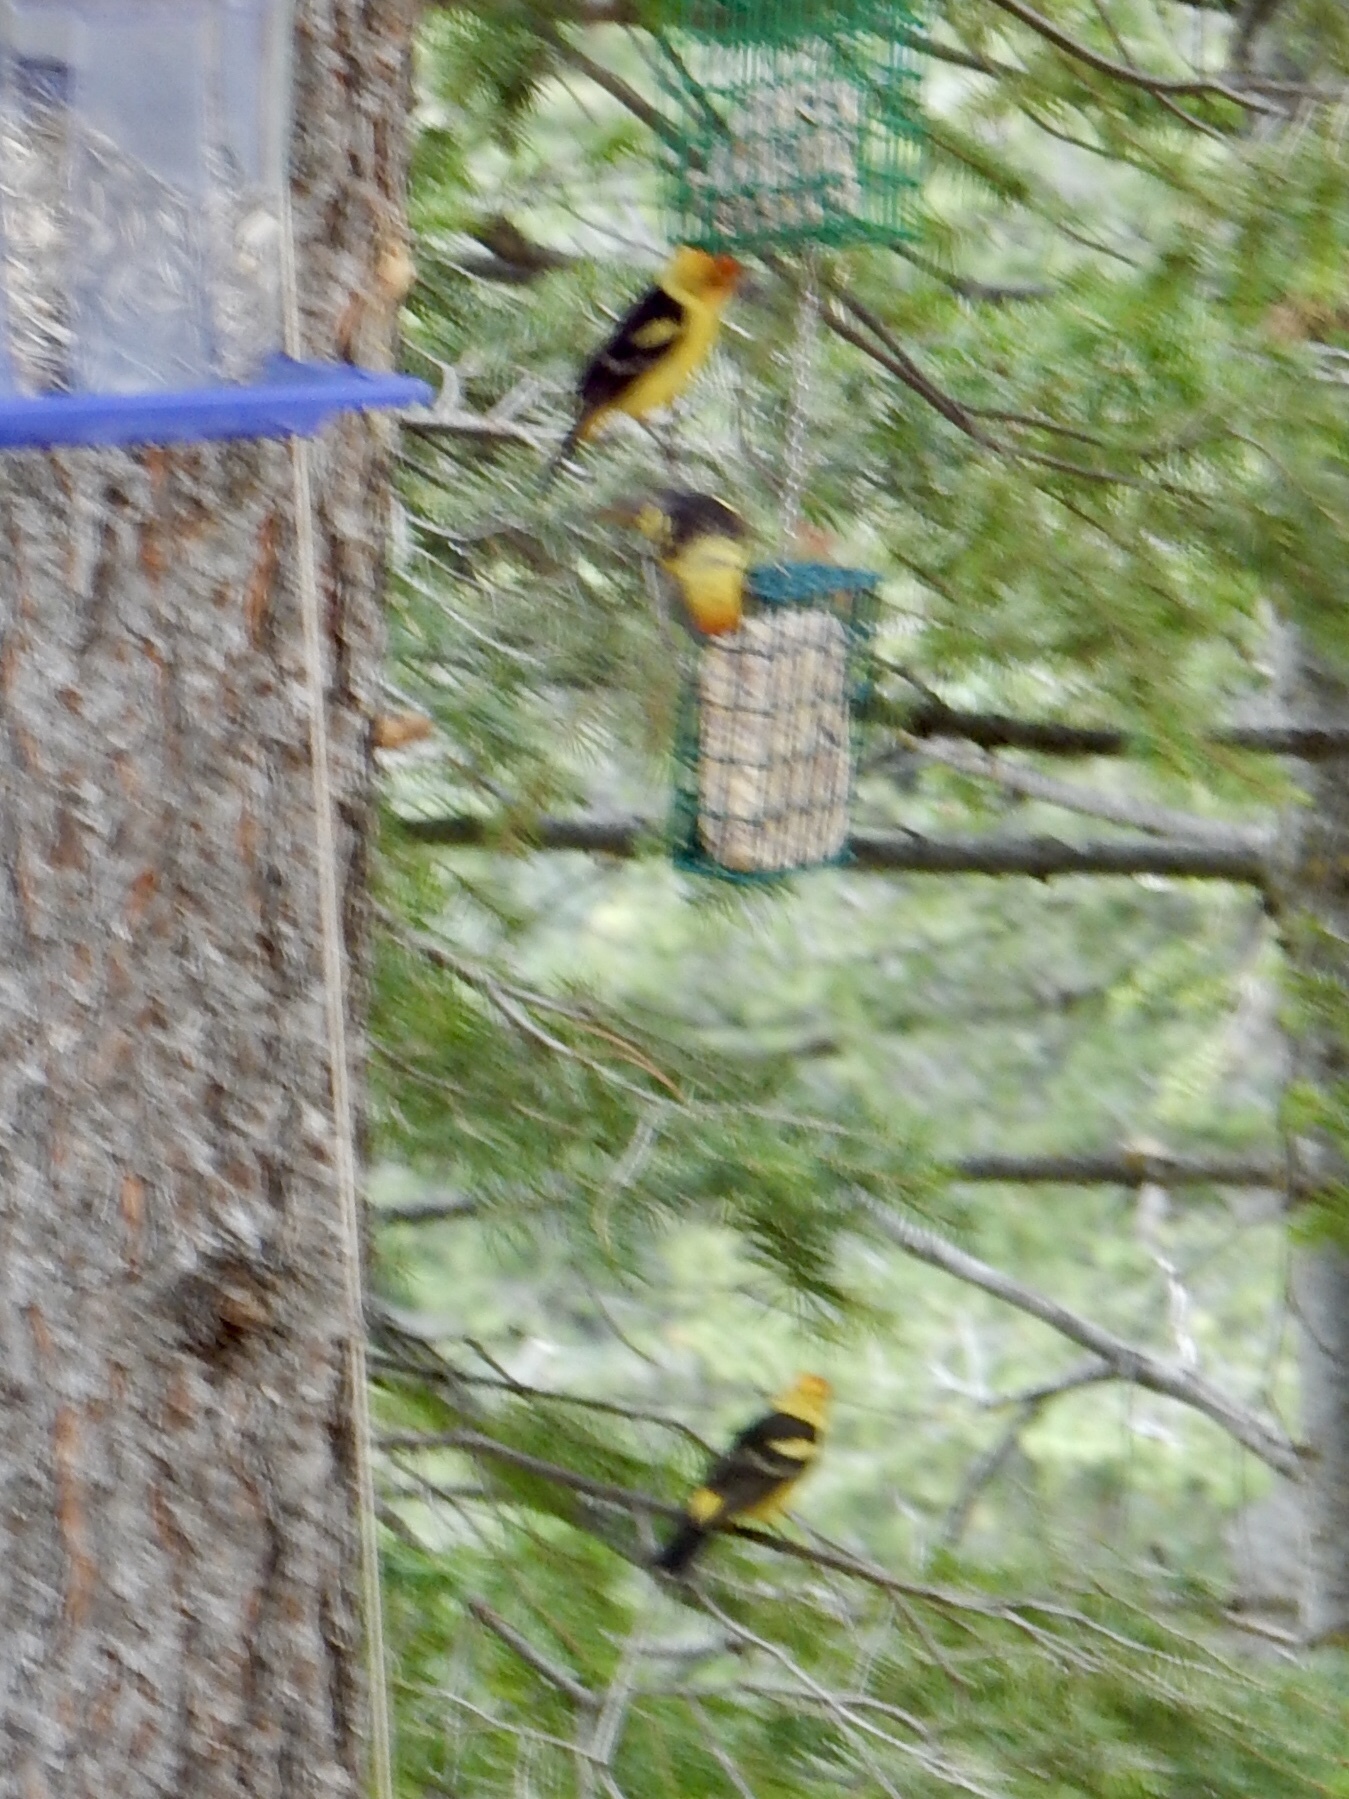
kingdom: Animalia
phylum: Chordata
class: Aves
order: Passeriformes
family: Cardinalidae
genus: Piranga
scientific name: Piranga ludoviciana
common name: Western tanager
